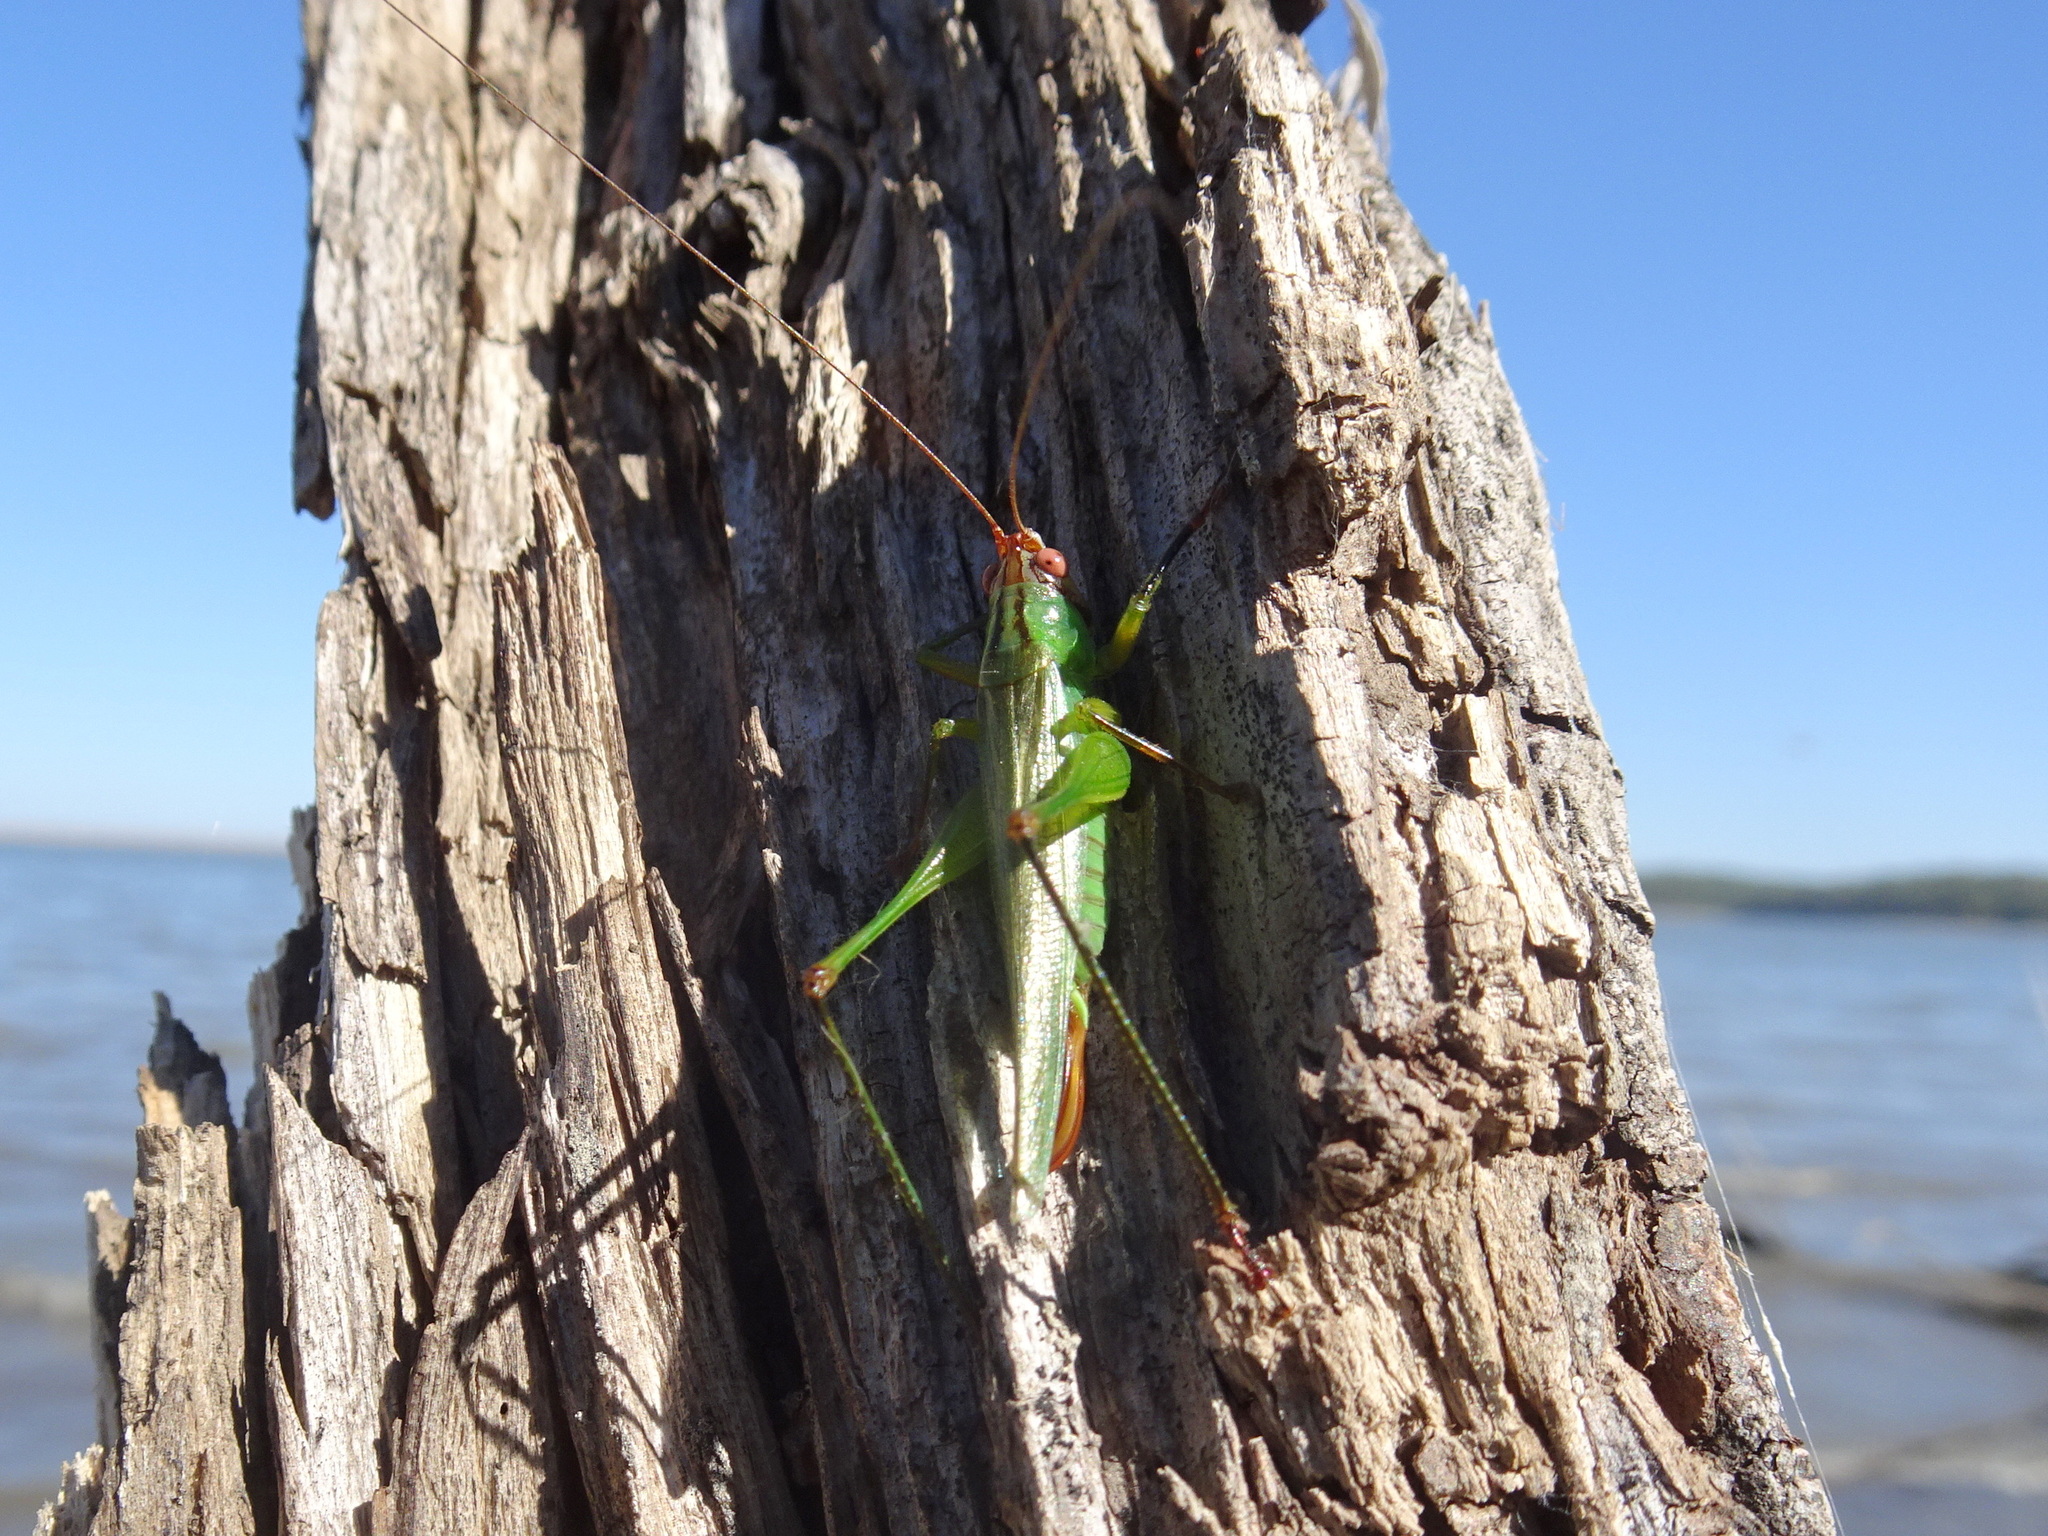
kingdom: Animalia
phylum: Arthropoda
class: Insecta
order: Orthoptera
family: Tettigoniidae
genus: Orchelimum
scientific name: Orchelimum nigripes
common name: Black-legged meadow katydid
